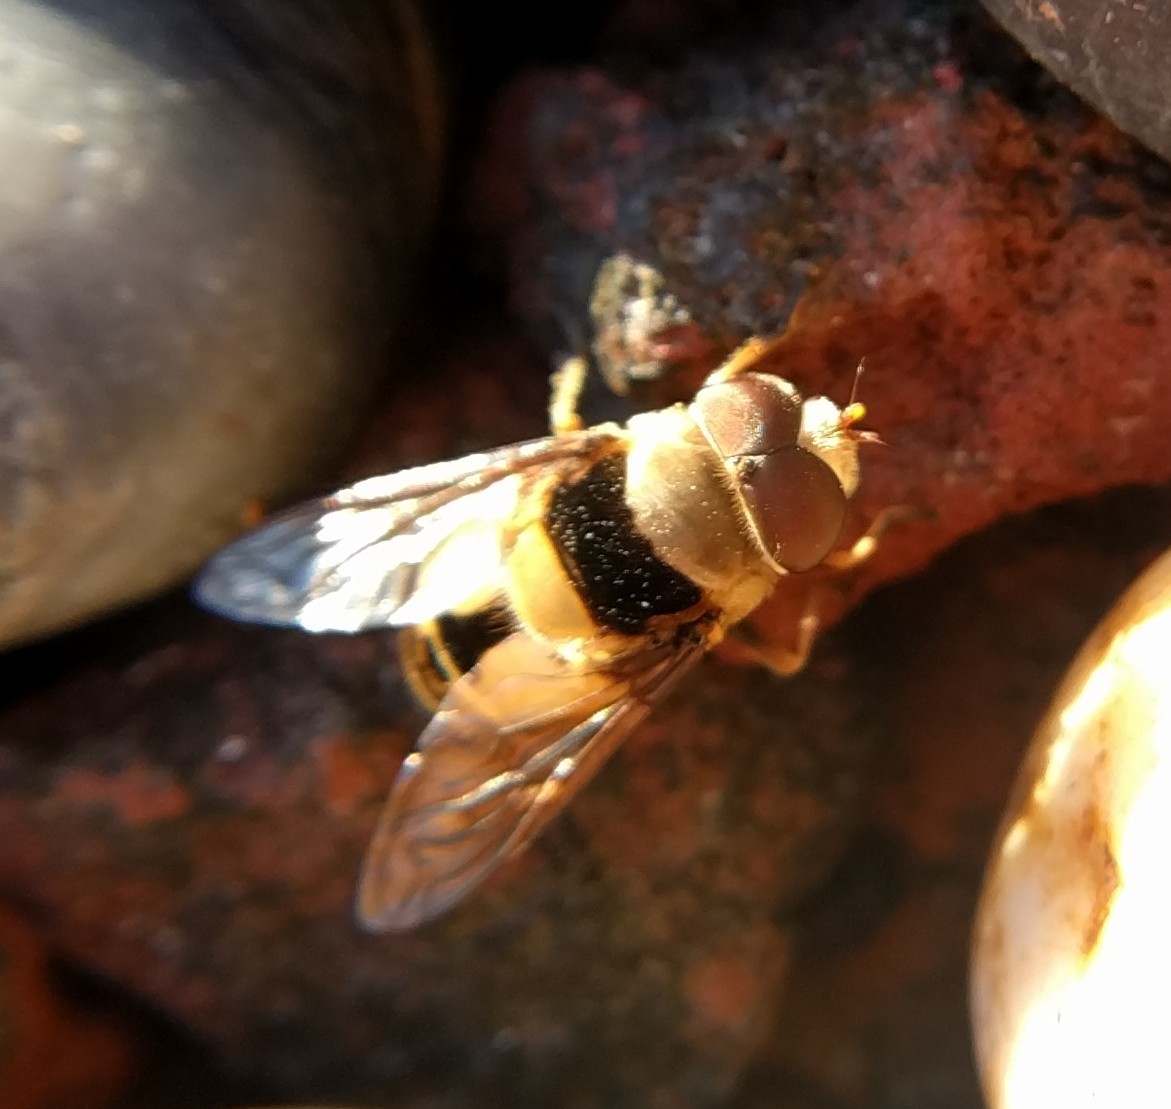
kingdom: Animalia
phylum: Arthropoda
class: Insecta
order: Diptera
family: Syrphidae
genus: Palpada
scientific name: Palpada pusilla
